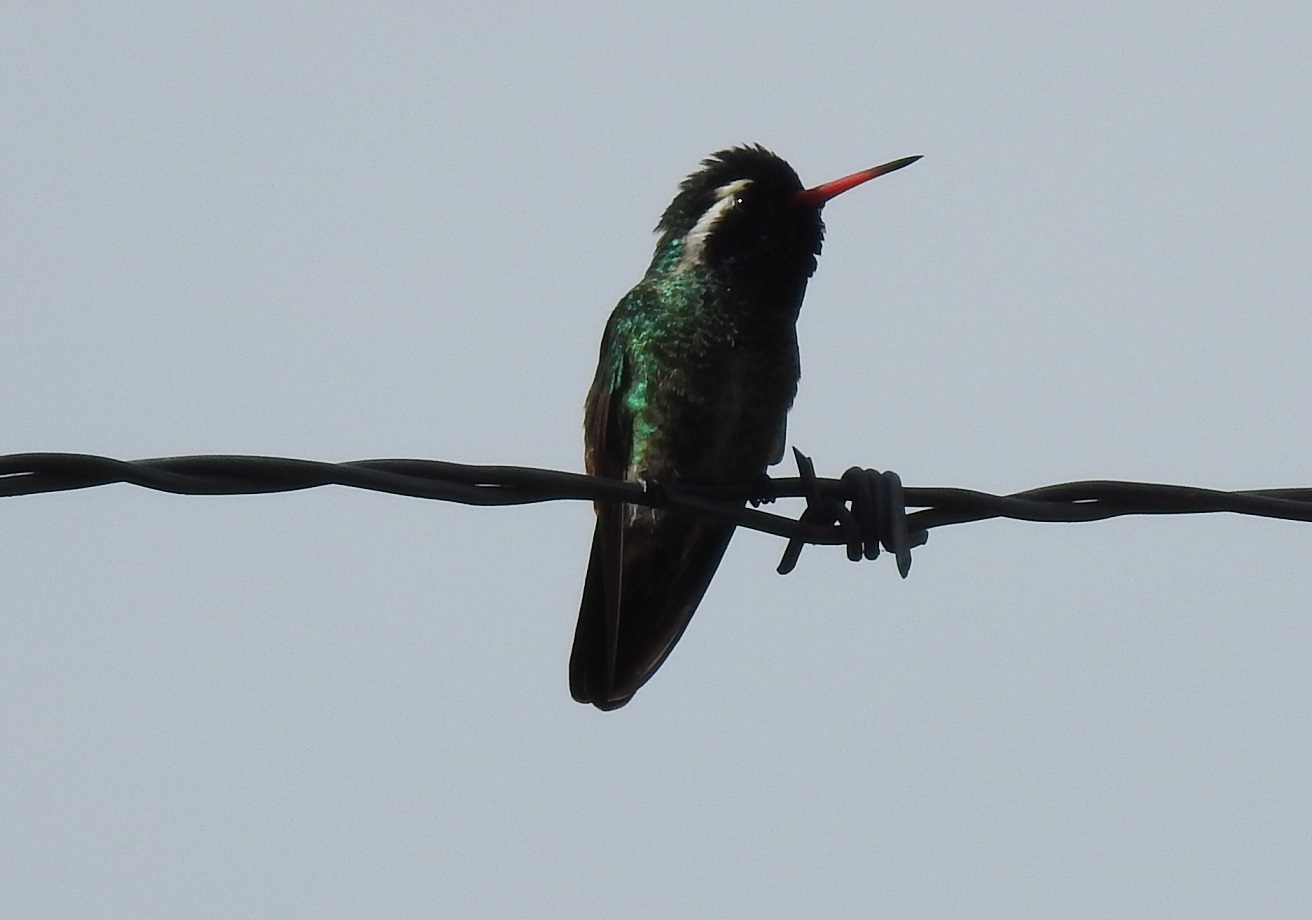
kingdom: Animalia
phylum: Chordata
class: Aves
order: Apodiformes
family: Trochilidae
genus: Basilinna
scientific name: Basilinna leucotis
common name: White-eared hummingbird
